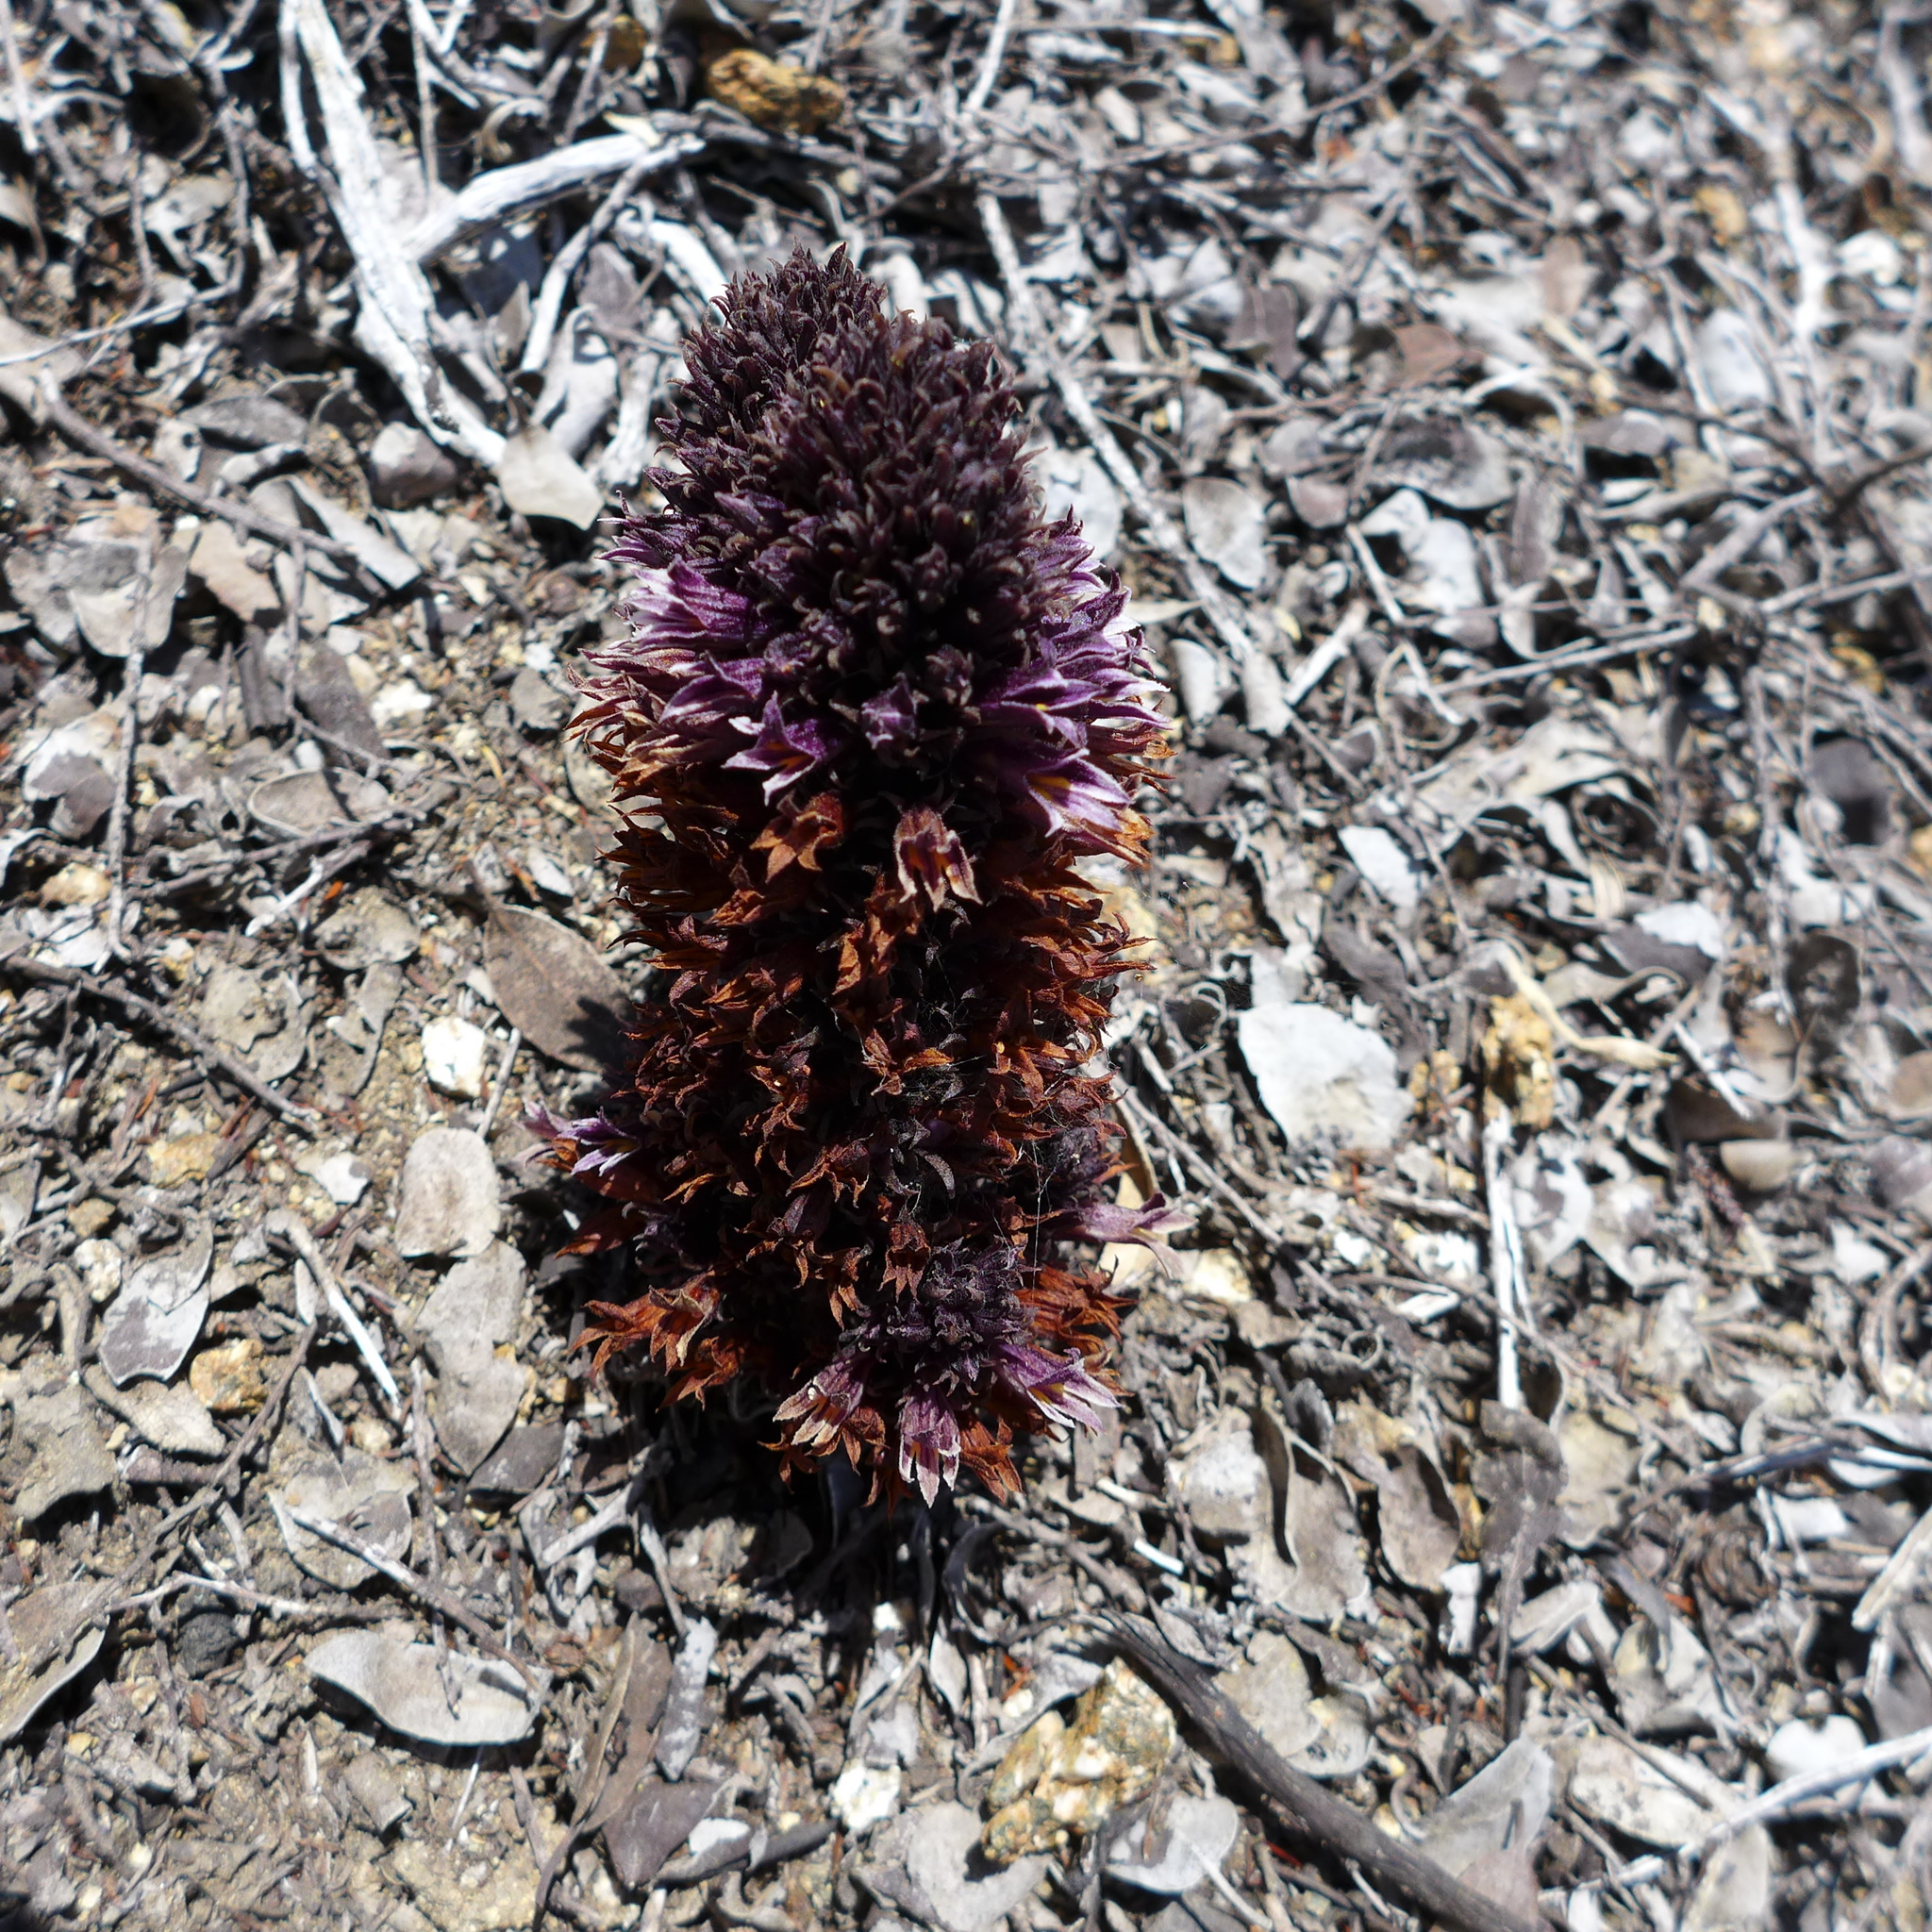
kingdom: Plantae
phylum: Tracheophyta
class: Magnoliopsida
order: Lamiales
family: Orobanchaceae
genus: Aphyllon
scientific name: Aphyllon tuberosum
